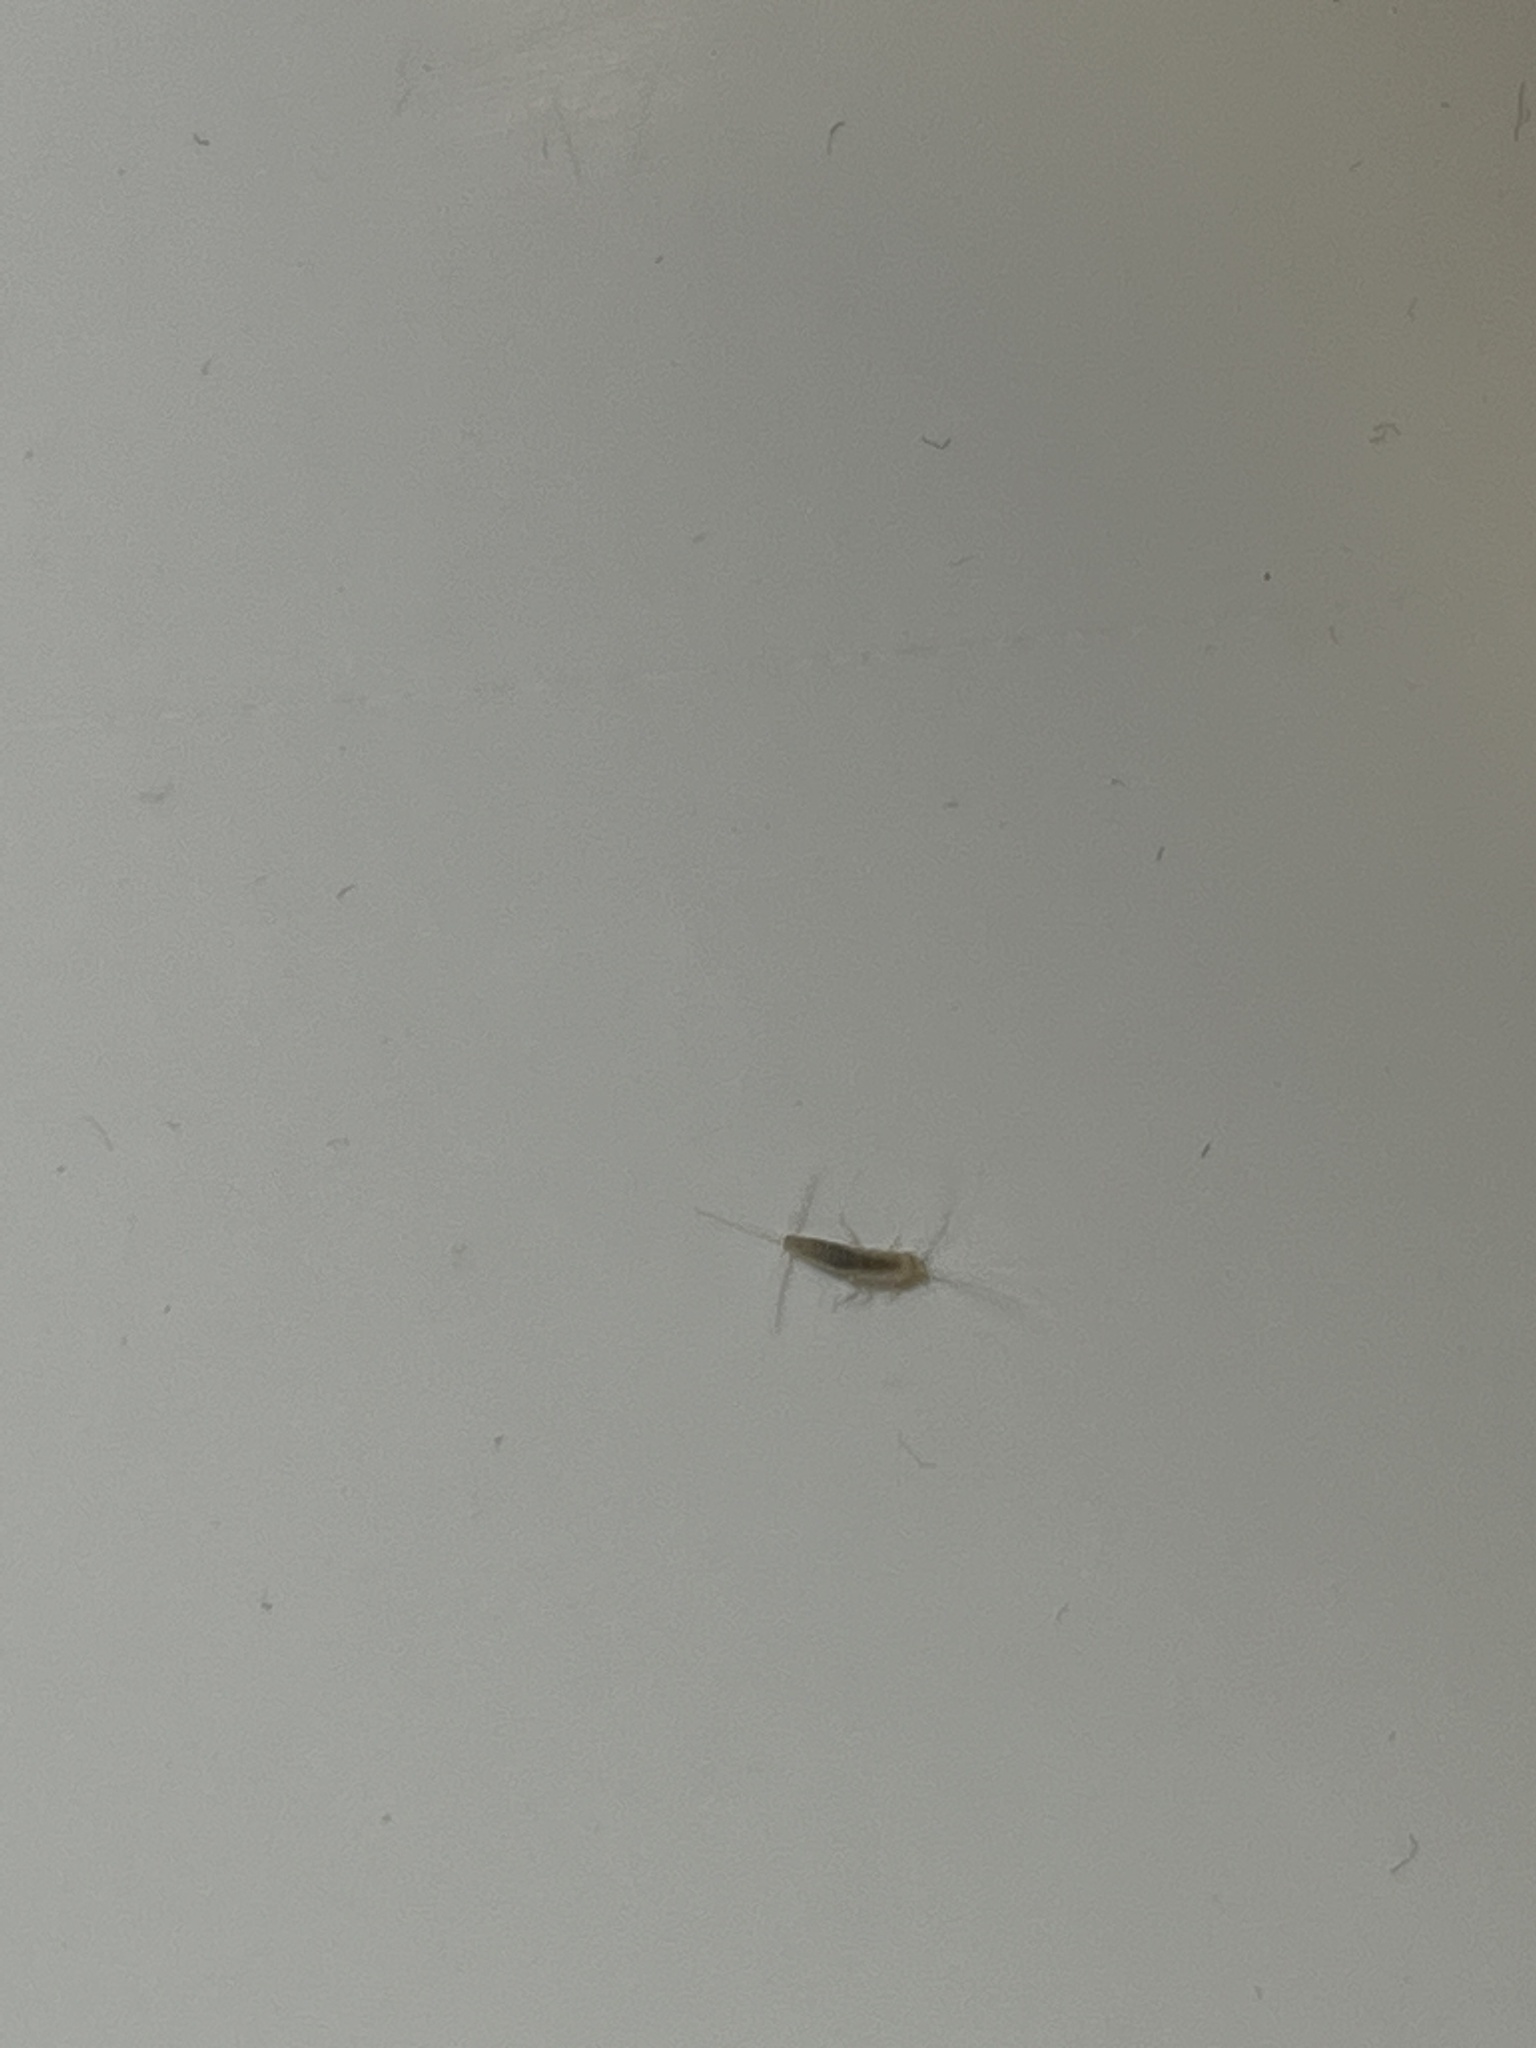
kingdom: Animalia
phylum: Arthropoda
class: Insecta
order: Zygentoma
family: Lepismatidae
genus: Lepisma
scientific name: Lepisma saccharinum
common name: Silverfish
